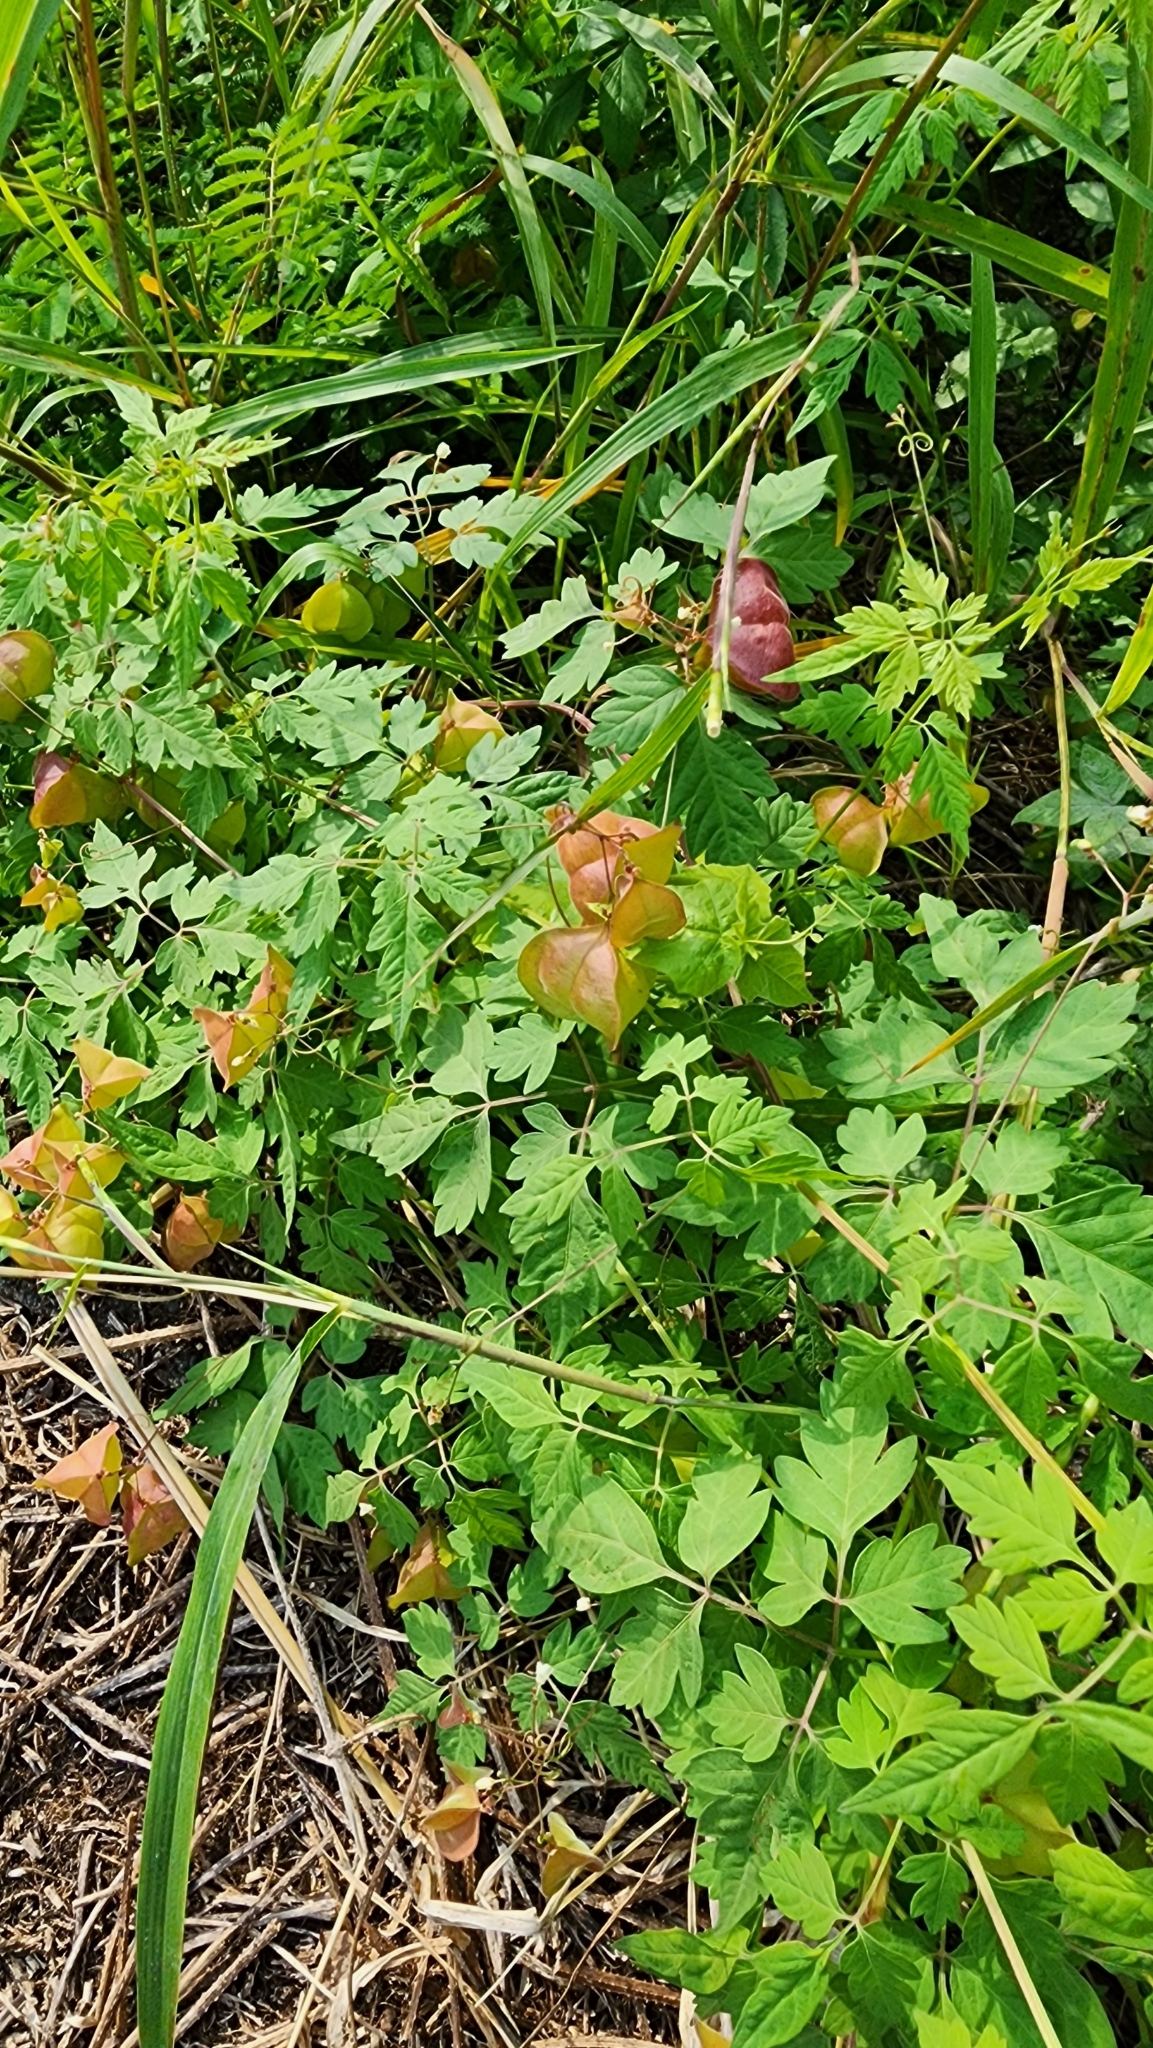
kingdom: Plantae
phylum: Tracheophyta
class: Magnoliopsida
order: Sapindales
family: Sapindaceae
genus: Cardiospermum
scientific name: Cardiospermum halicacabum
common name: Balloon vine
